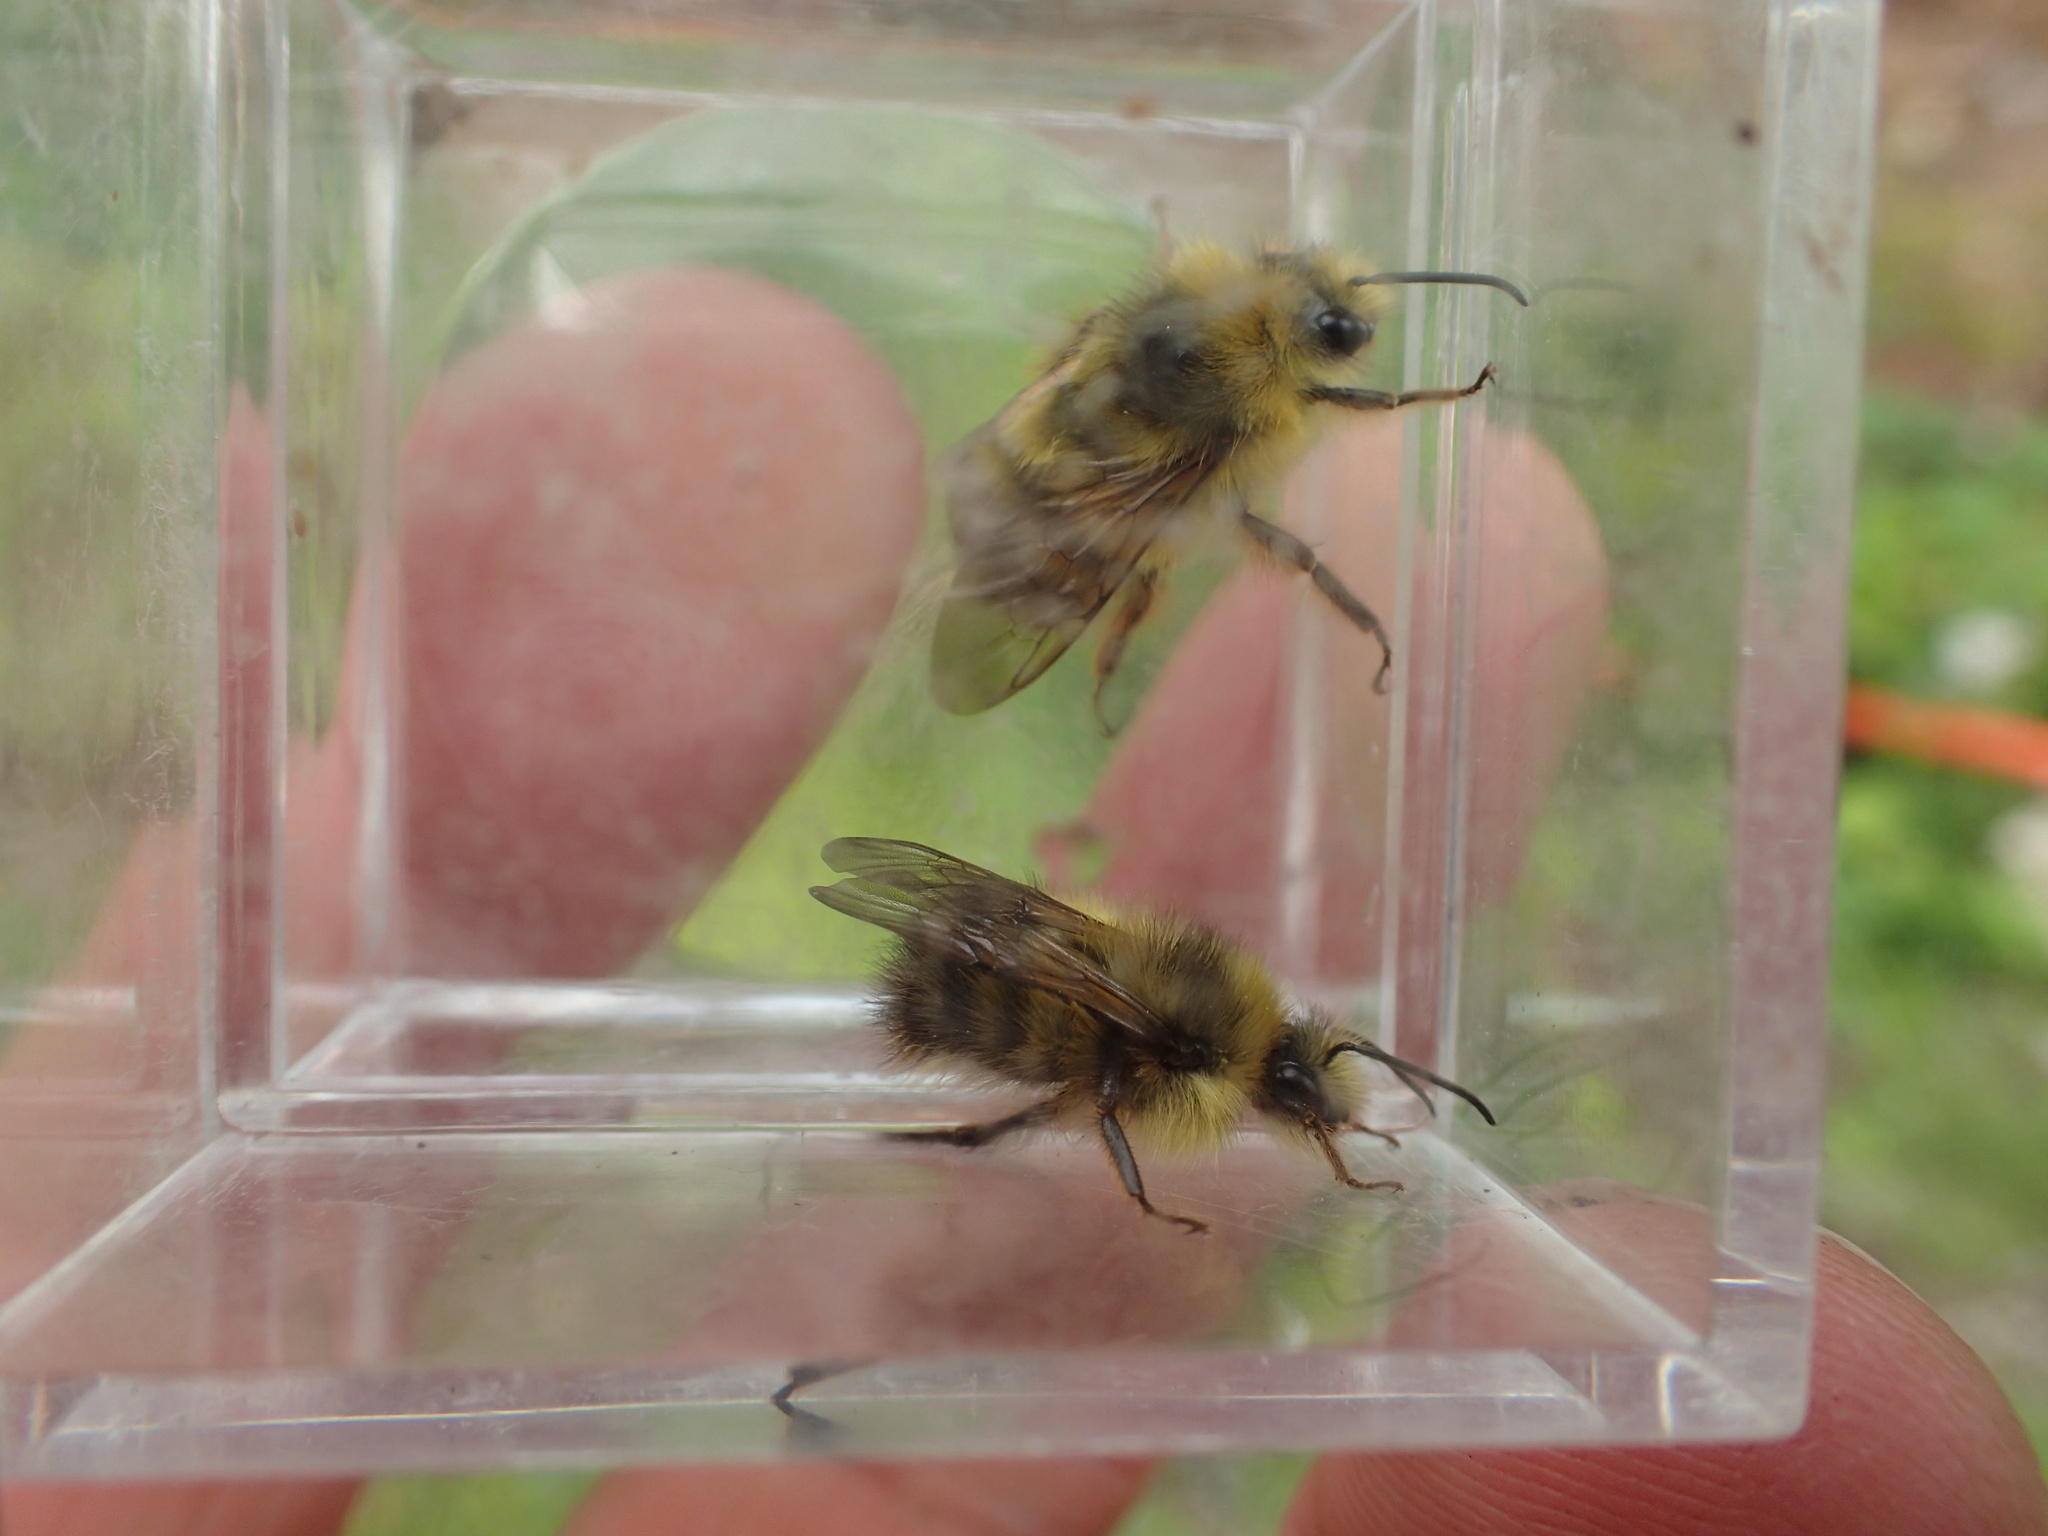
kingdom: Animalia
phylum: Arthropoda
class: Insecta
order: Hymenoptera
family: Apidae
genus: Bombus
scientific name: Bombus flavifrons
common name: Yellow head bumble bee
